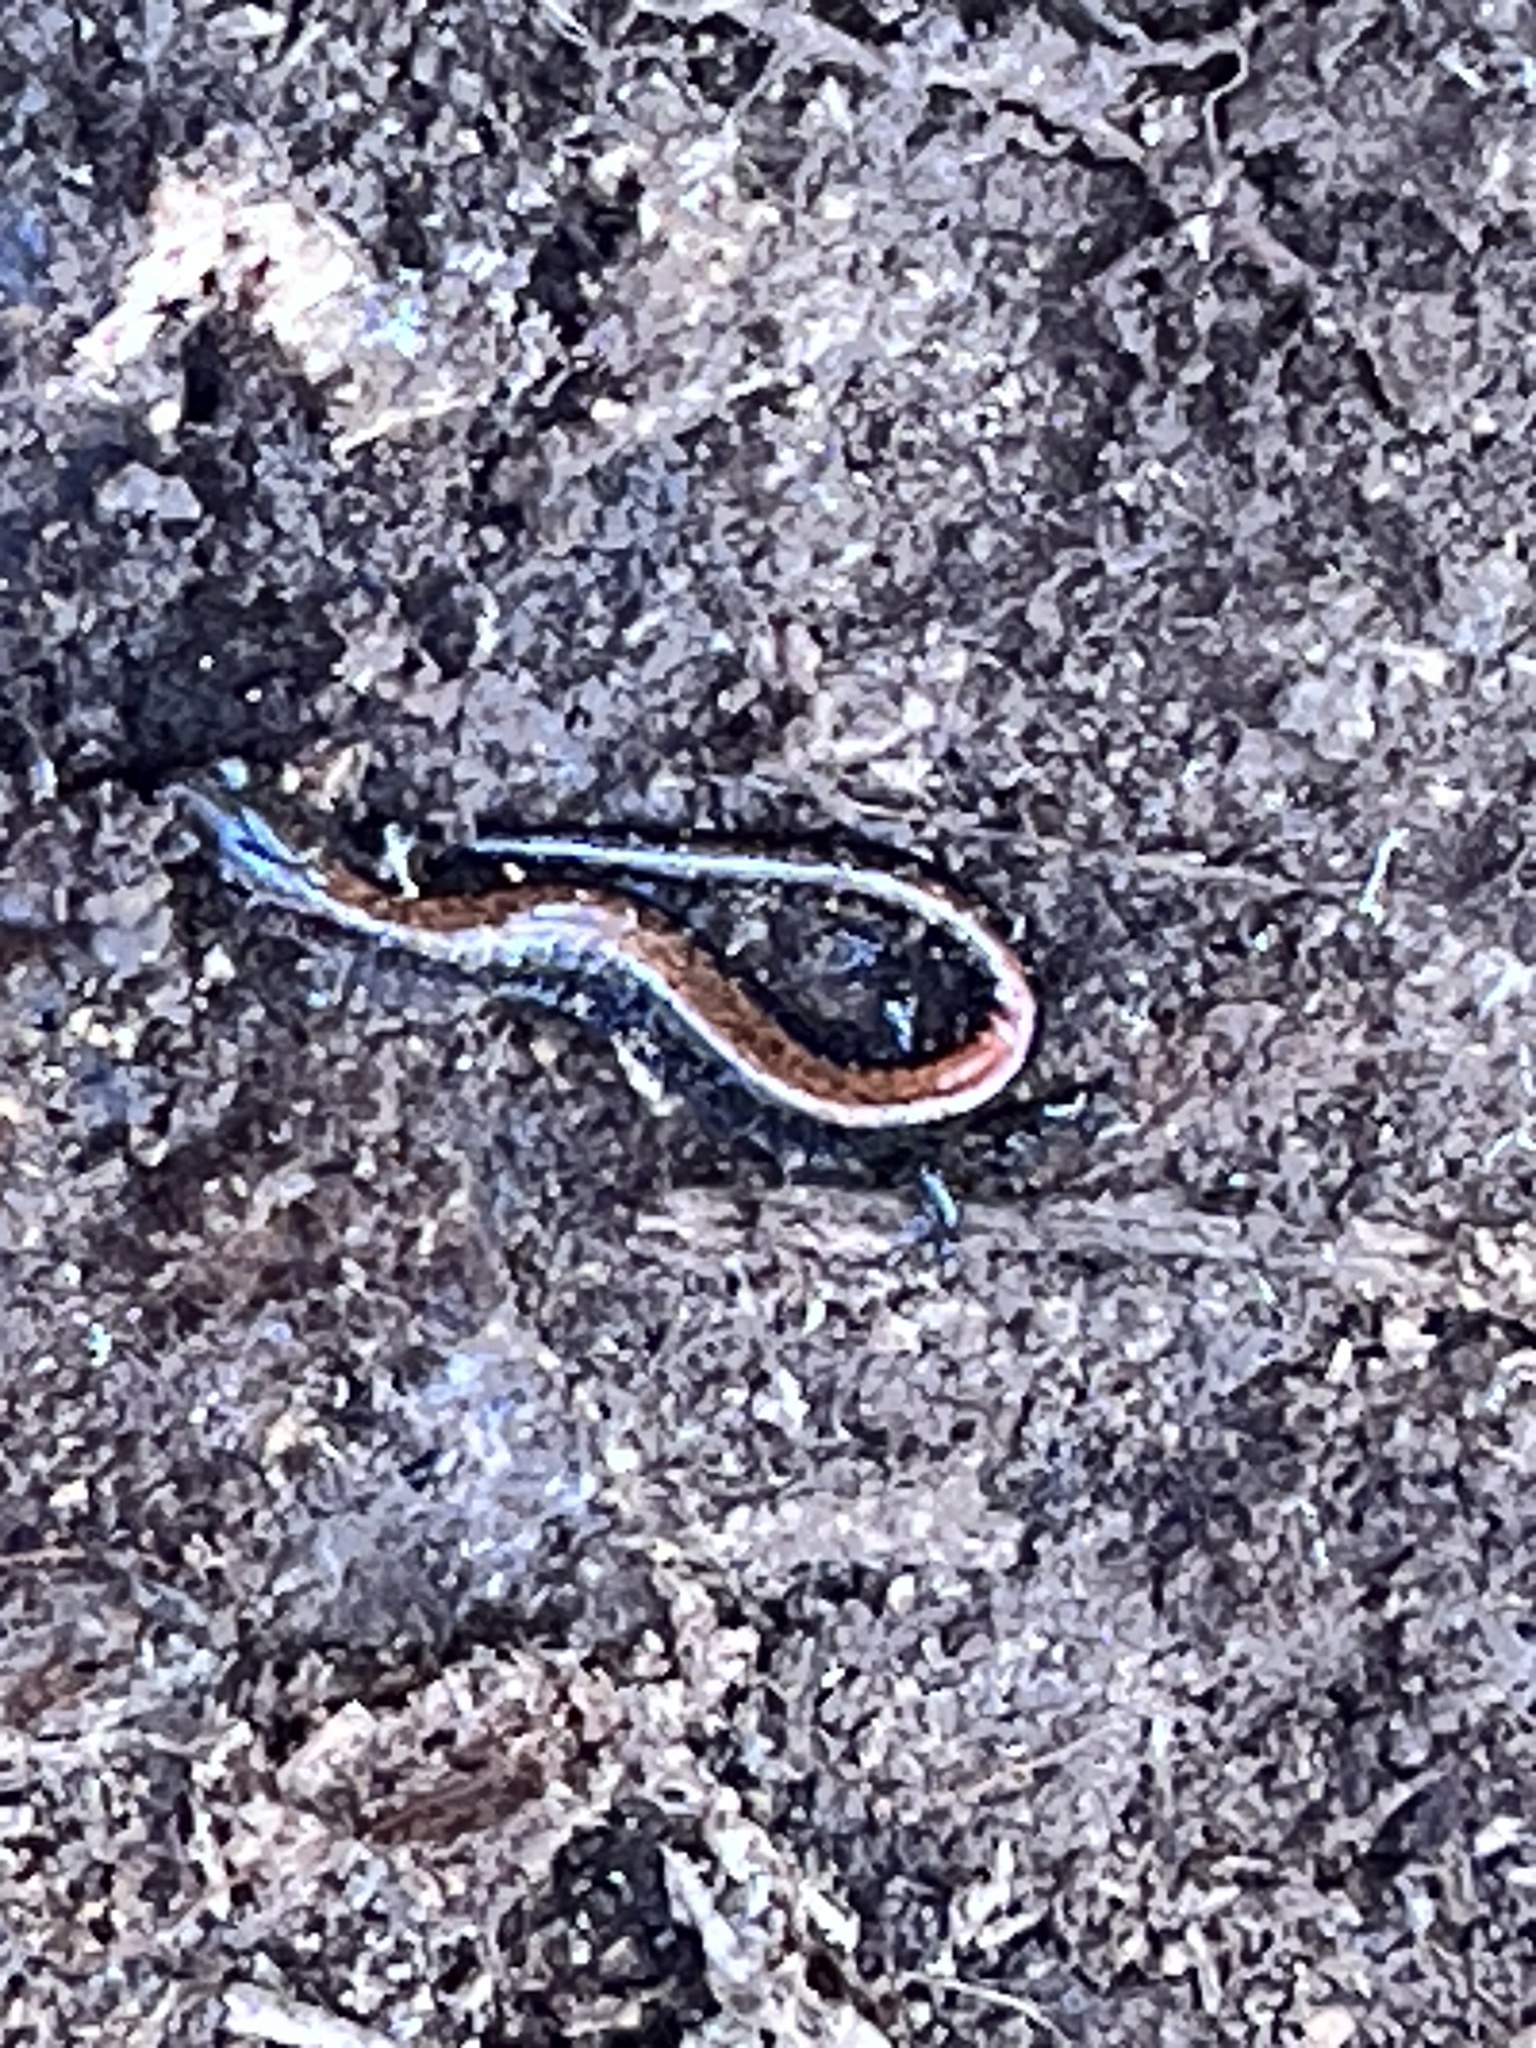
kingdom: Animalia
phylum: Chordata
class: Amphibia
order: Caudata
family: Plethodontidae
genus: Plethodon
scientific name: Plethodon cinereus
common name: Redback salamander
